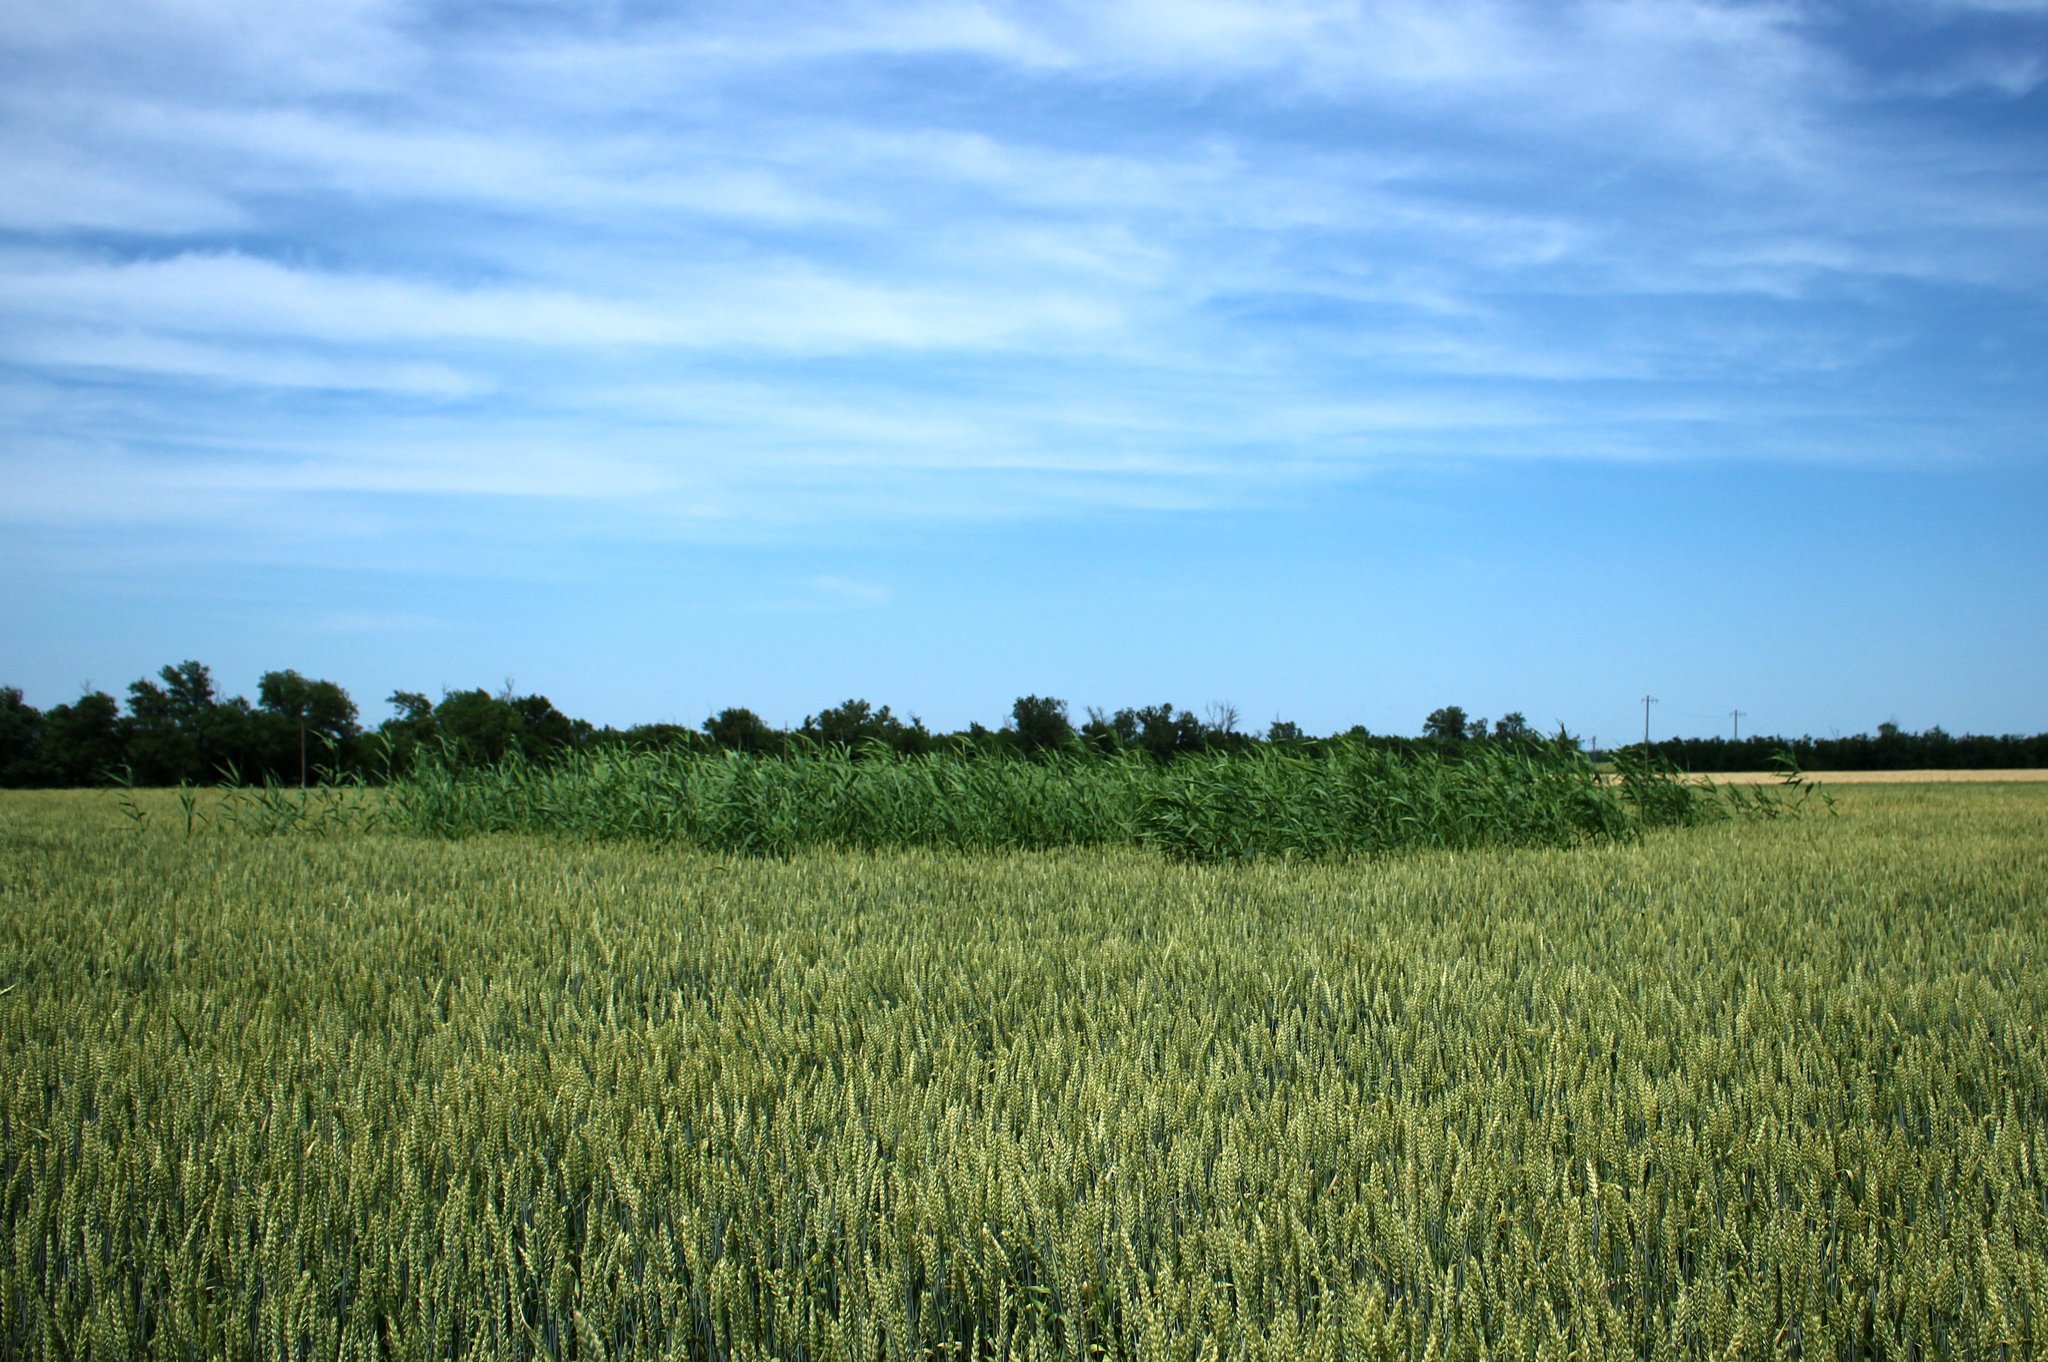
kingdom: Plantae
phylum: Tracheophyta
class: Liliopsida
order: Poales
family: Poaceae
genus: Phragmites
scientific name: Phragmites australis
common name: Common reed
